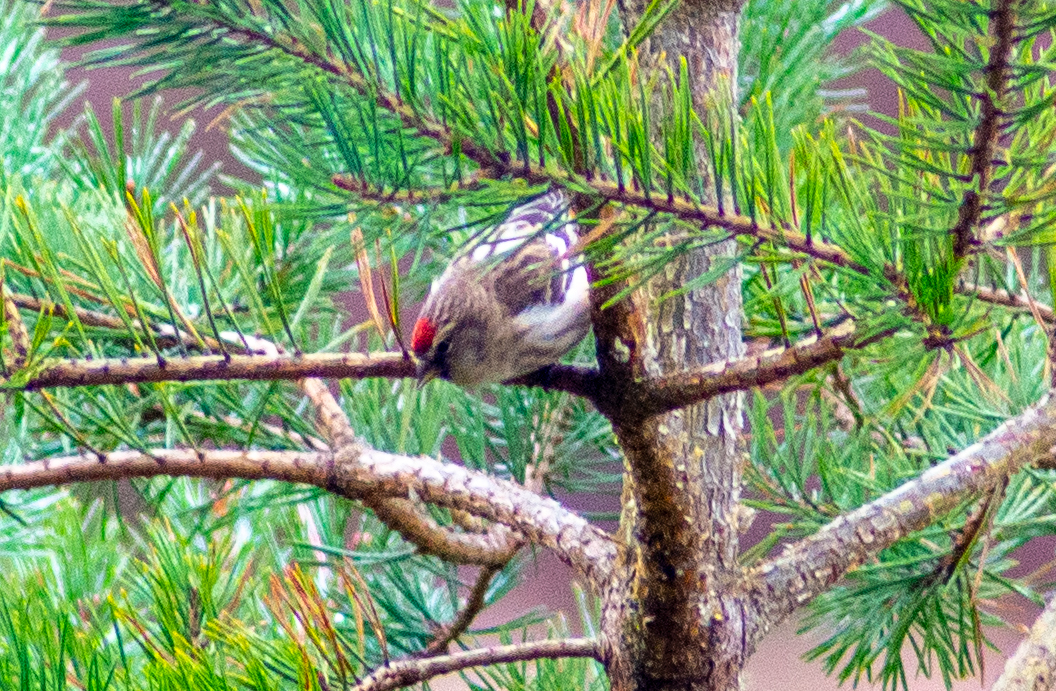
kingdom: Animalia
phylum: Chordata
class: Aves
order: Passeriformes
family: Fringillidae
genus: Acanthis
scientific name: Acanthis flammea
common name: Common redpoll
